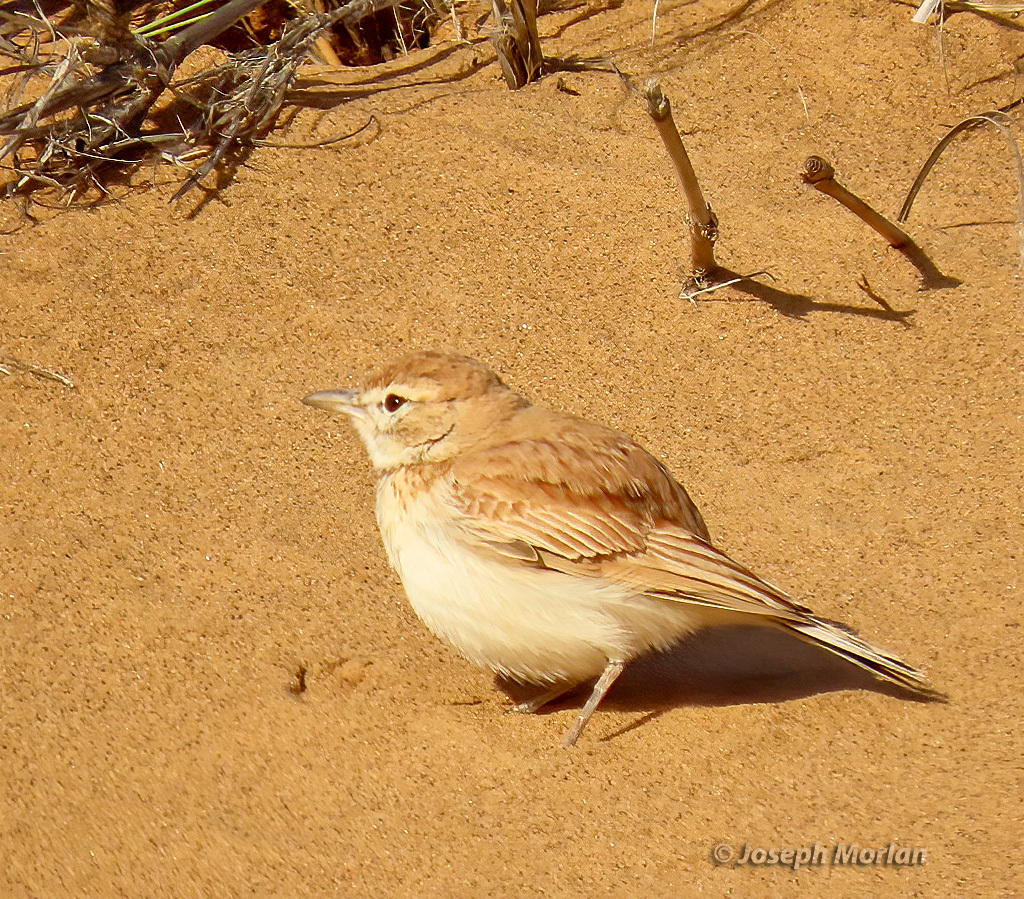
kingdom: Animalia
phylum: Chordata
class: Aves
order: Passeriformes
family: Alaudidae
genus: Calendulauda
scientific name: Calendulauda erythrochlamys
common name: Dune lark
